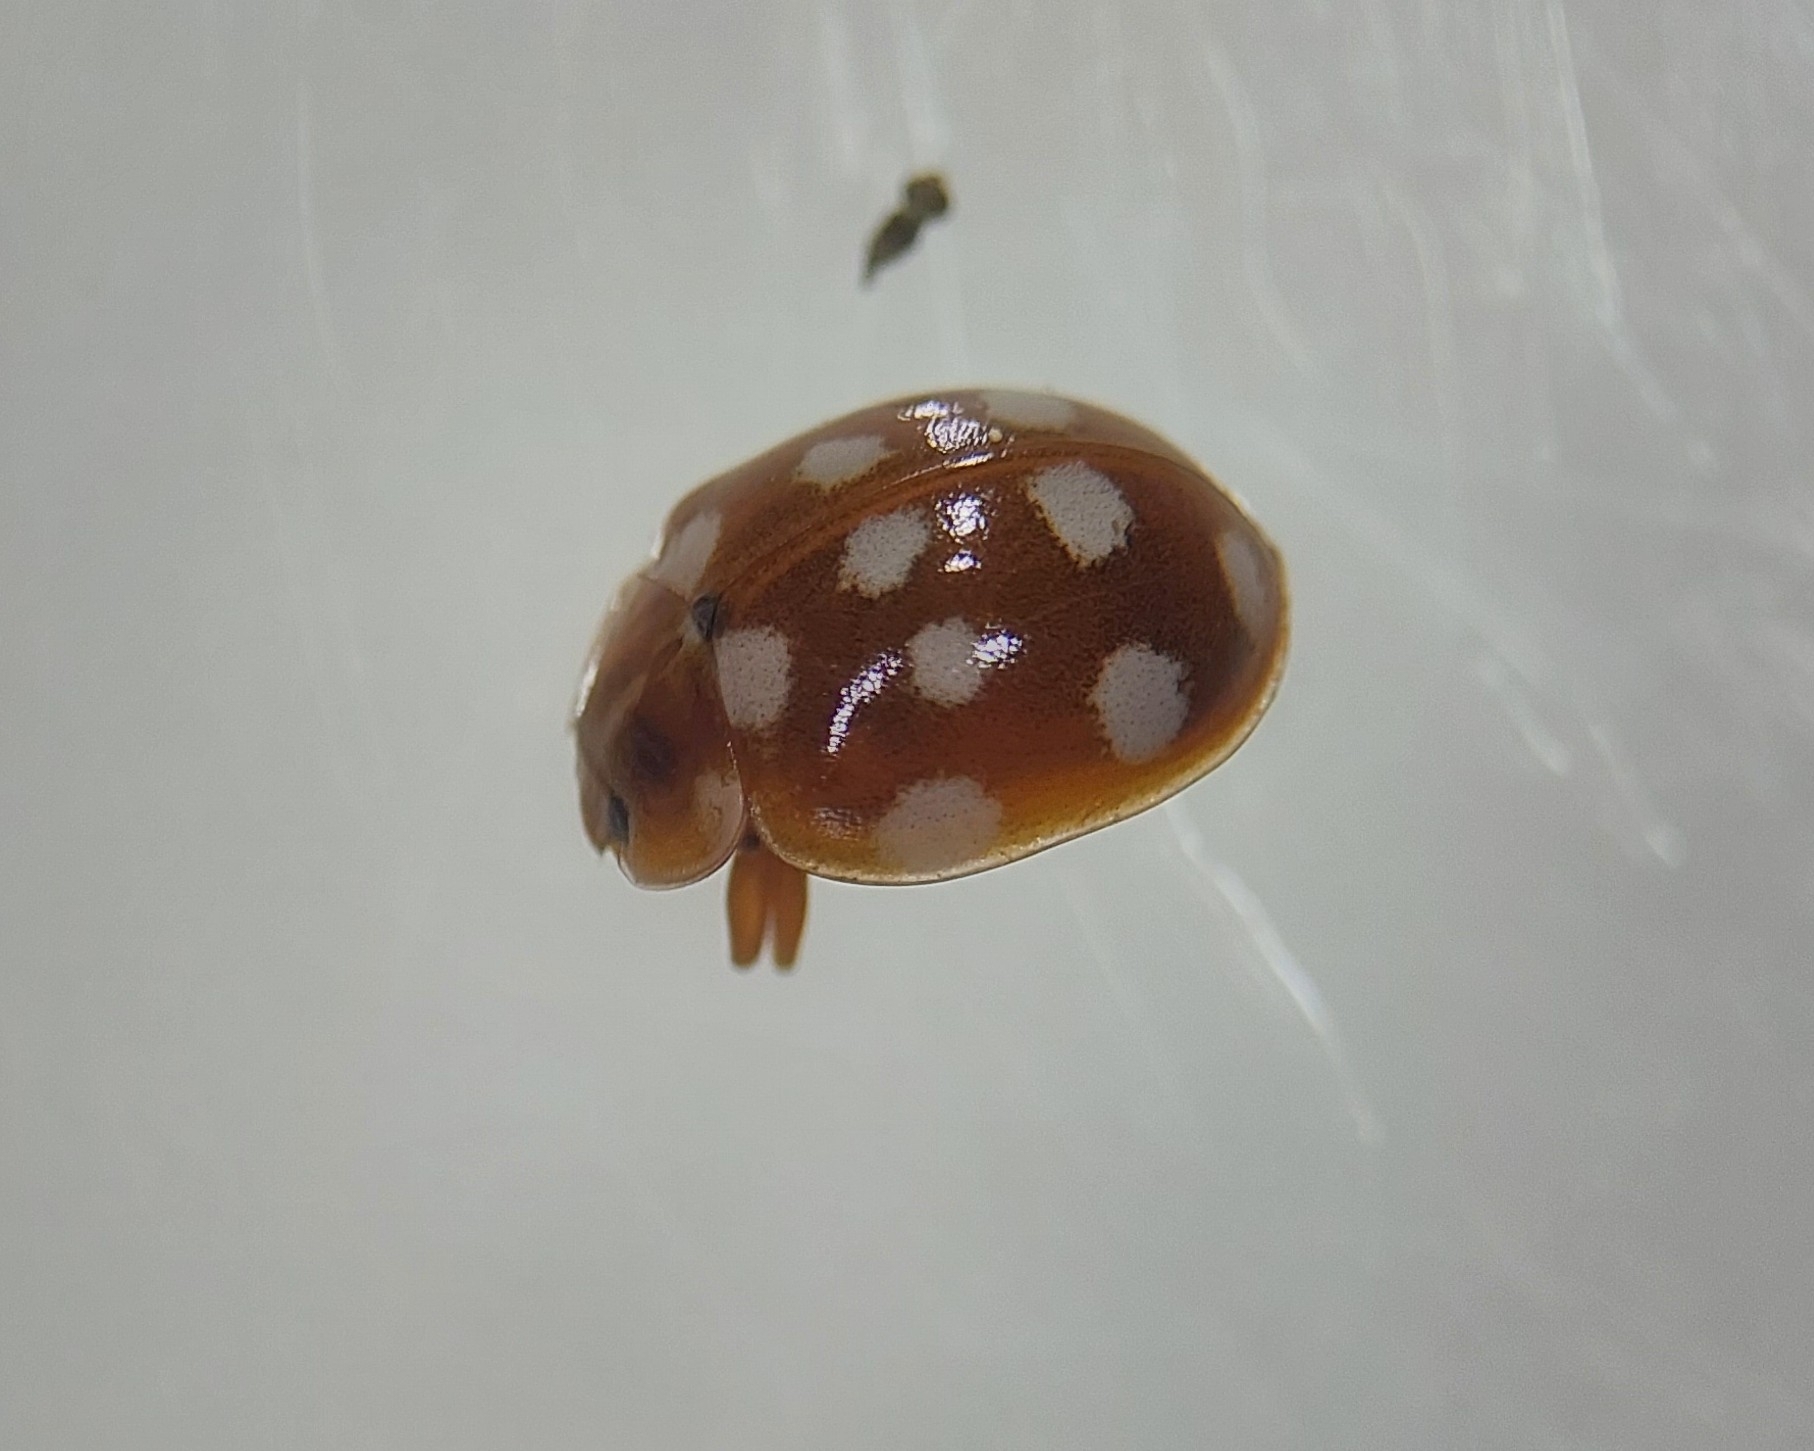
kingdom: Animalia
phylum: Arthropoda
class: Insecta
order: Coleoptera
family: Coccinellidae
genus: Calvia
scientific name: Calvia quatuordecimguttata
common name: Cream-spot ladybird
